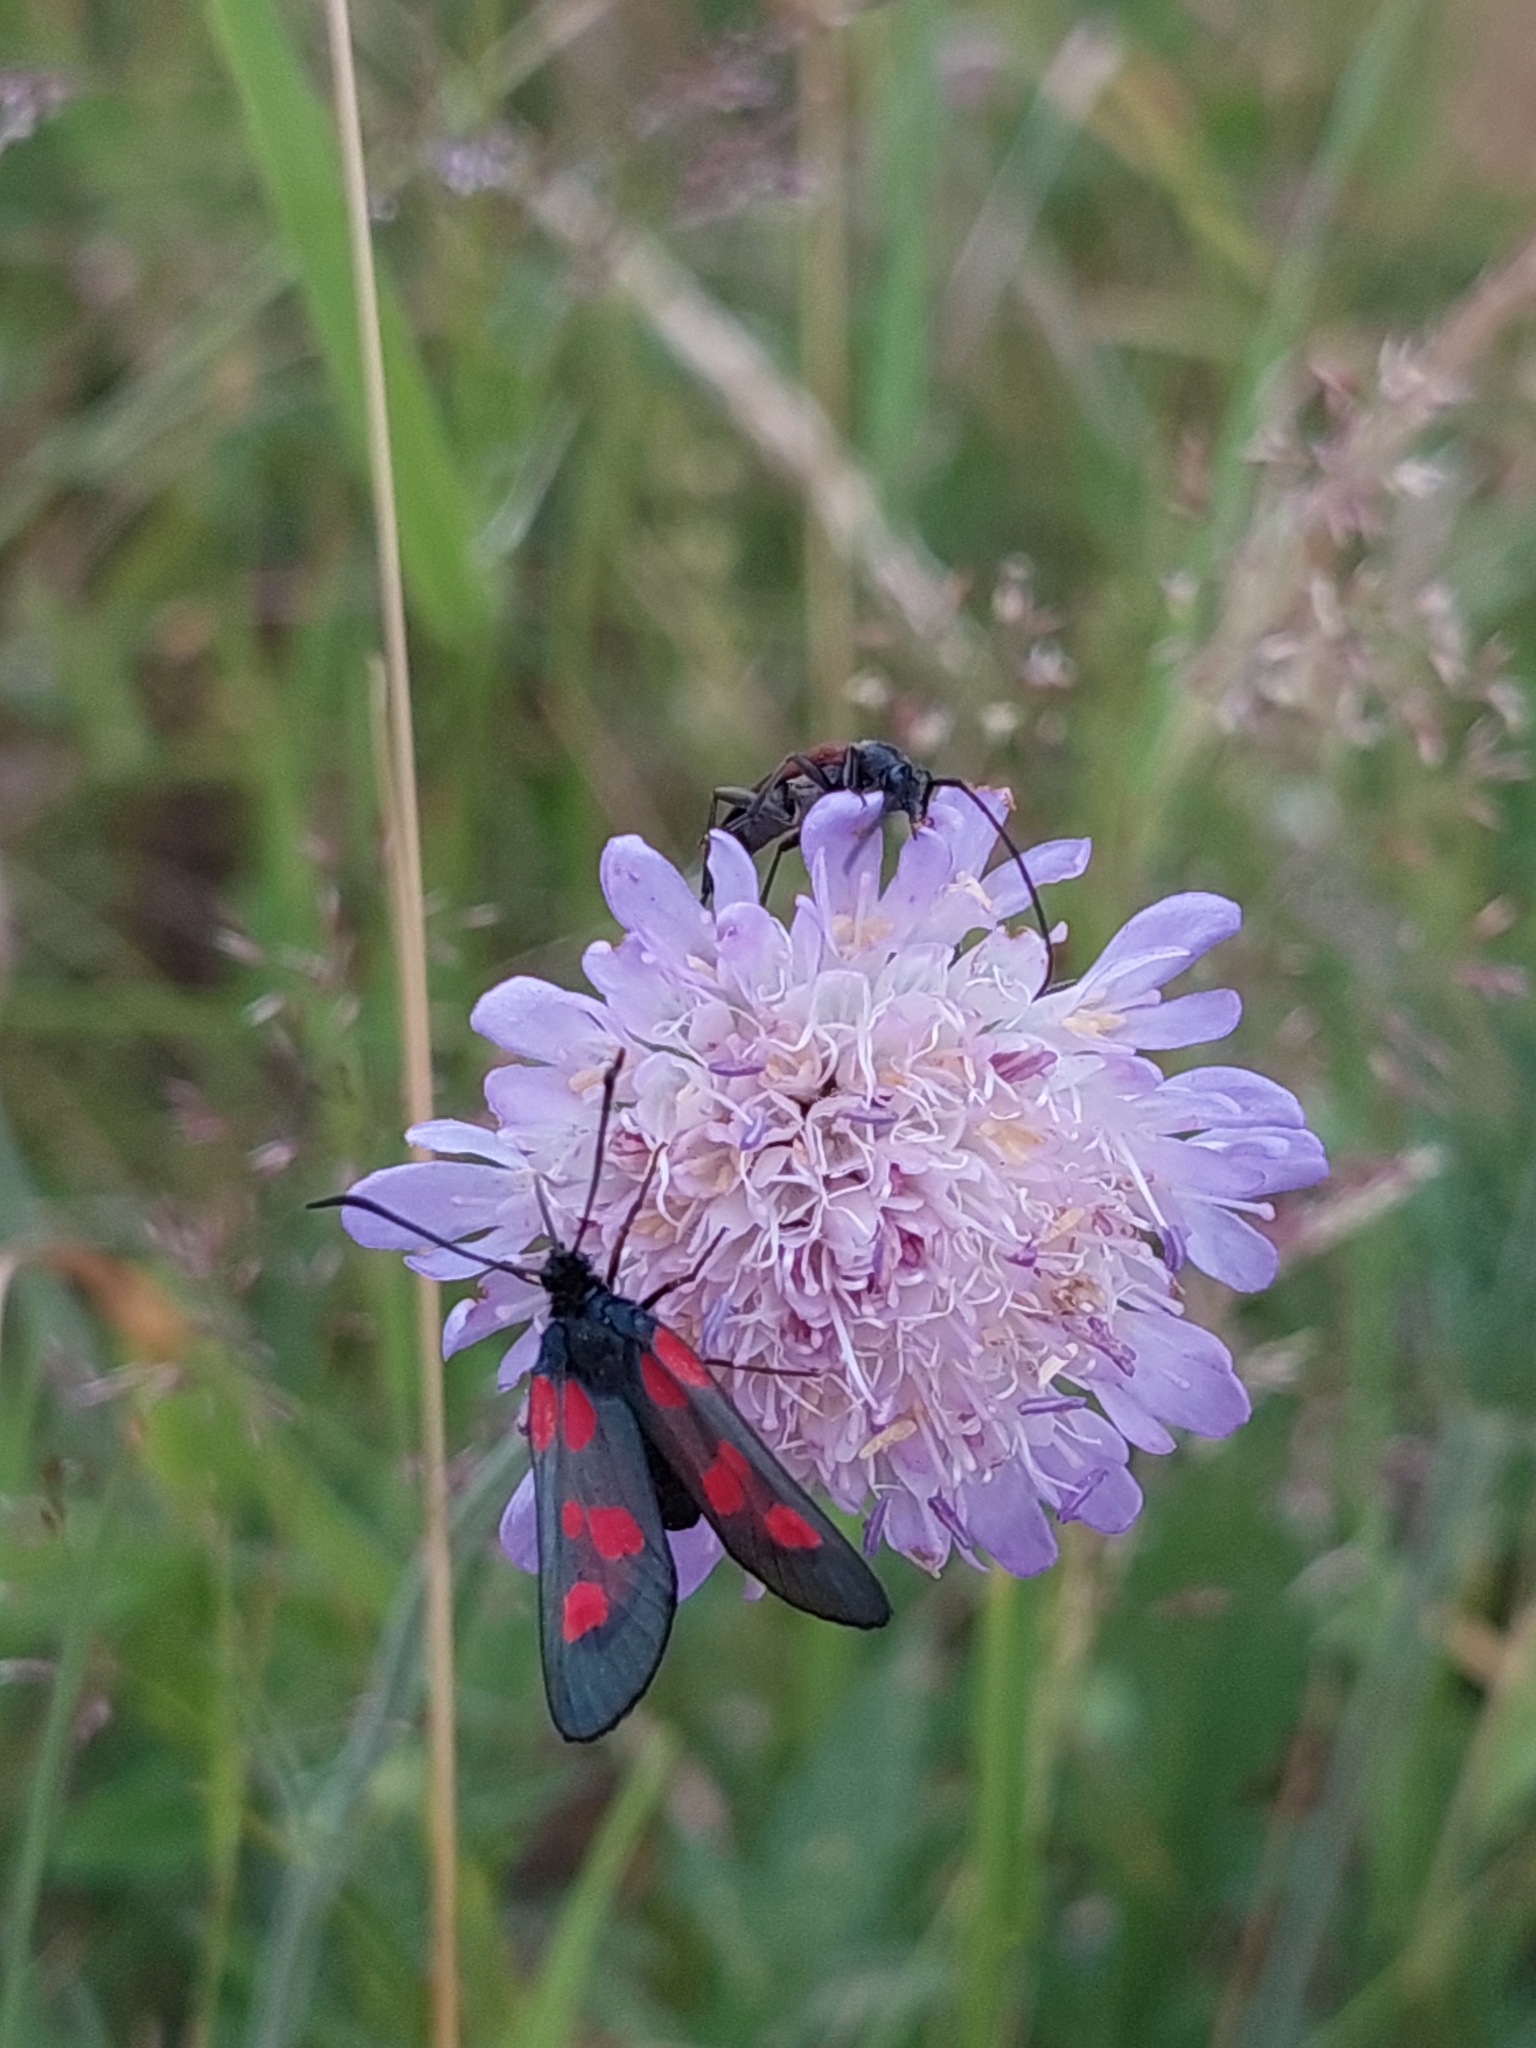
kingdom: Animalia
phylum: Arthropoda
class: Insecta
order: Lepidoptera
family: Zygaenidae
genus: Zygaena
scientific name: Zygaena viciae
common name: New forest burnet
